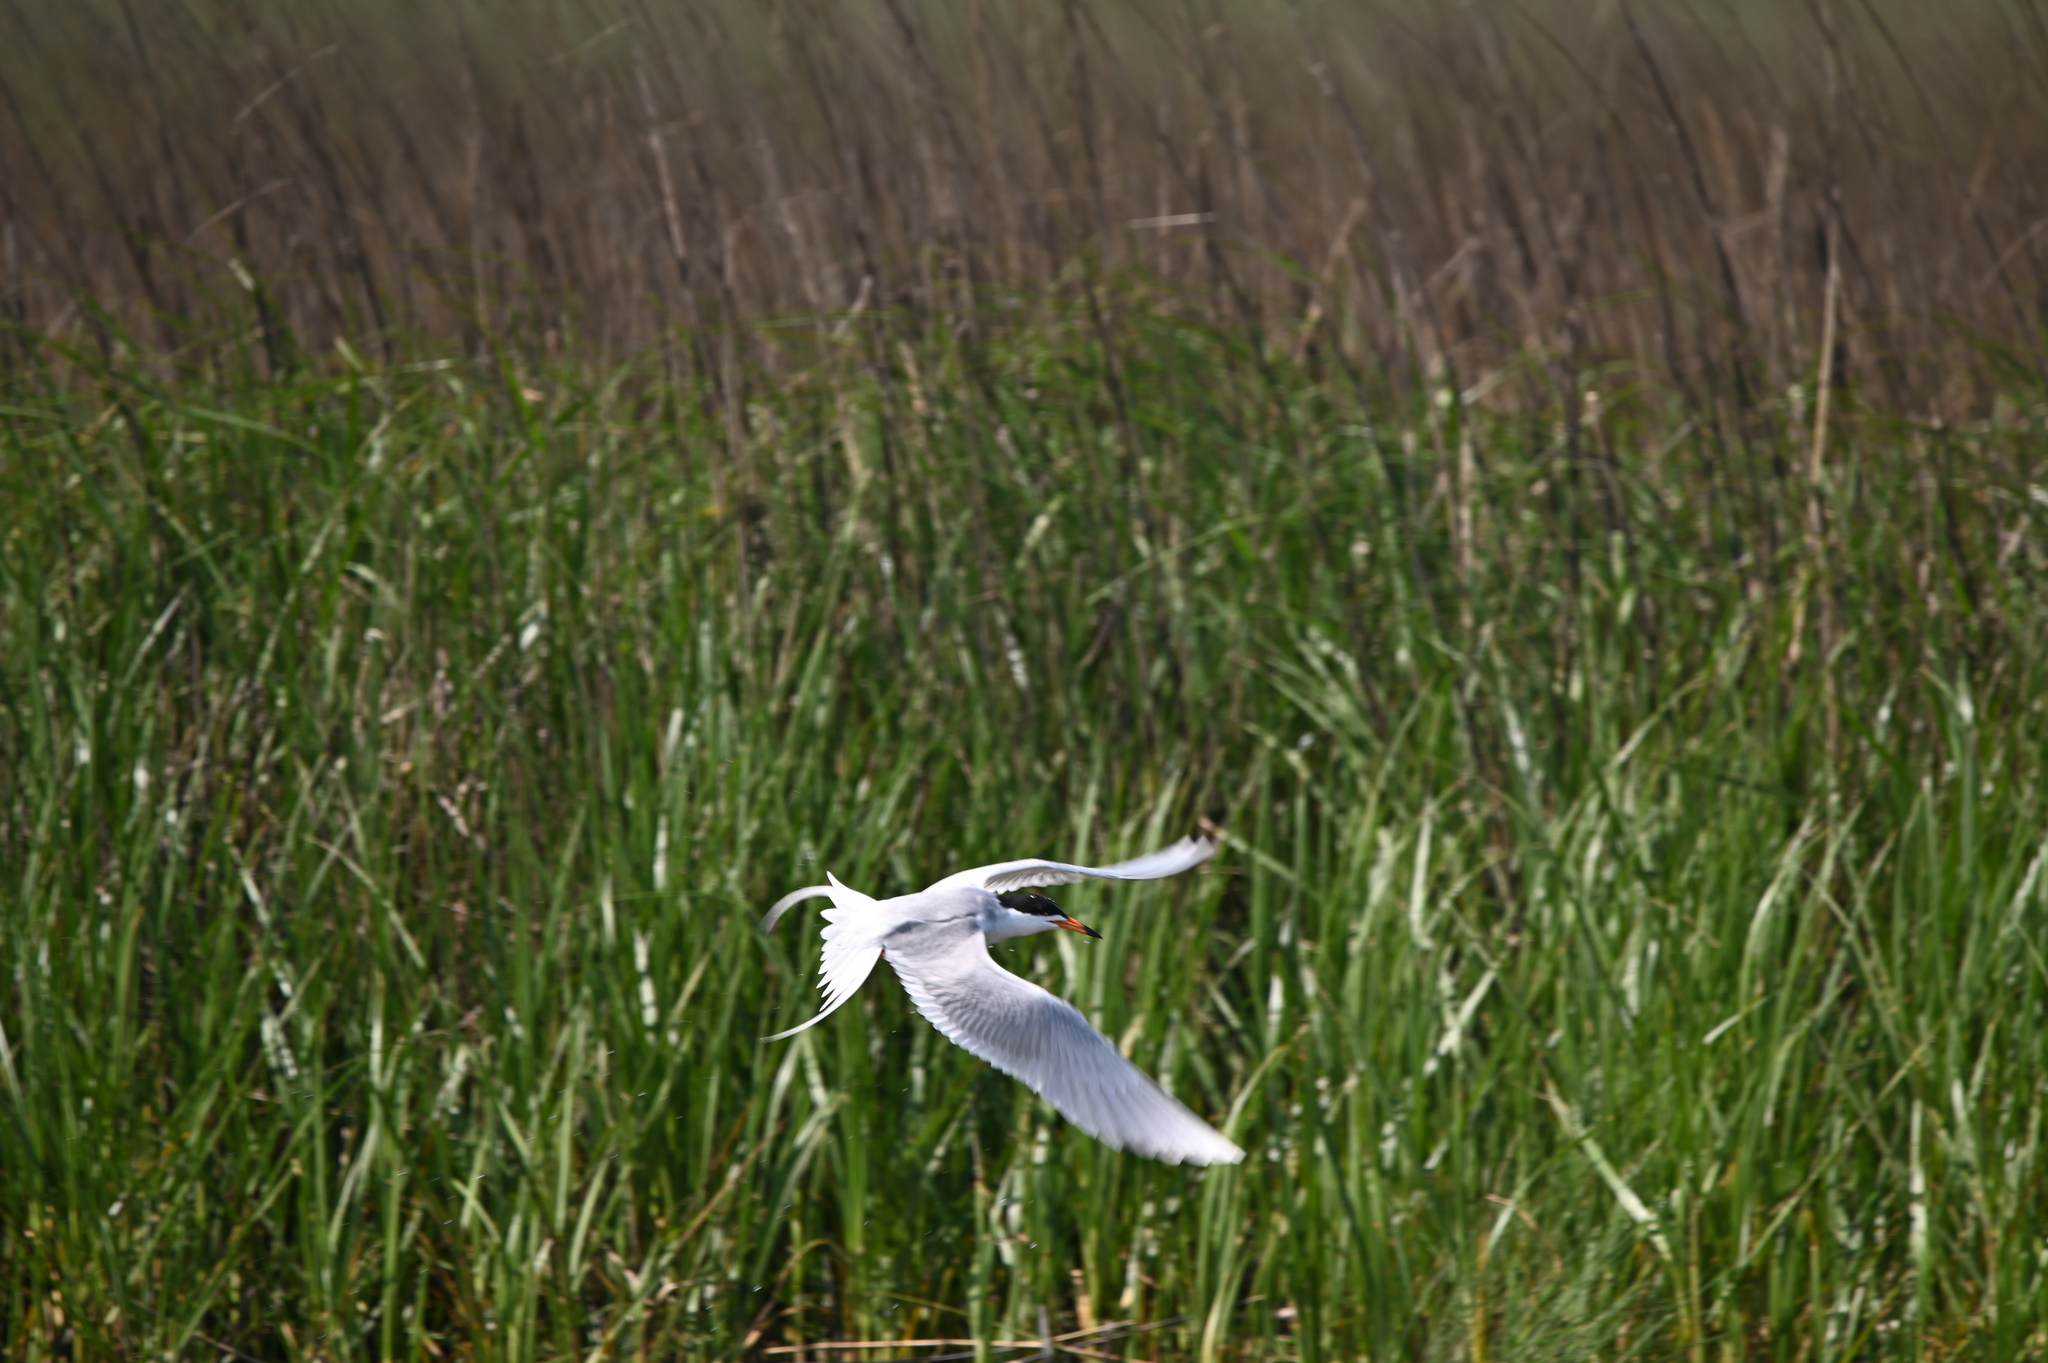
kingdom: Animalia
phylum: Chordata
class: Aves
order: Charadriiformes
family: Laridae
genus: Sterna
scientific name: Sterna forsteri
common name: Forster's tern
